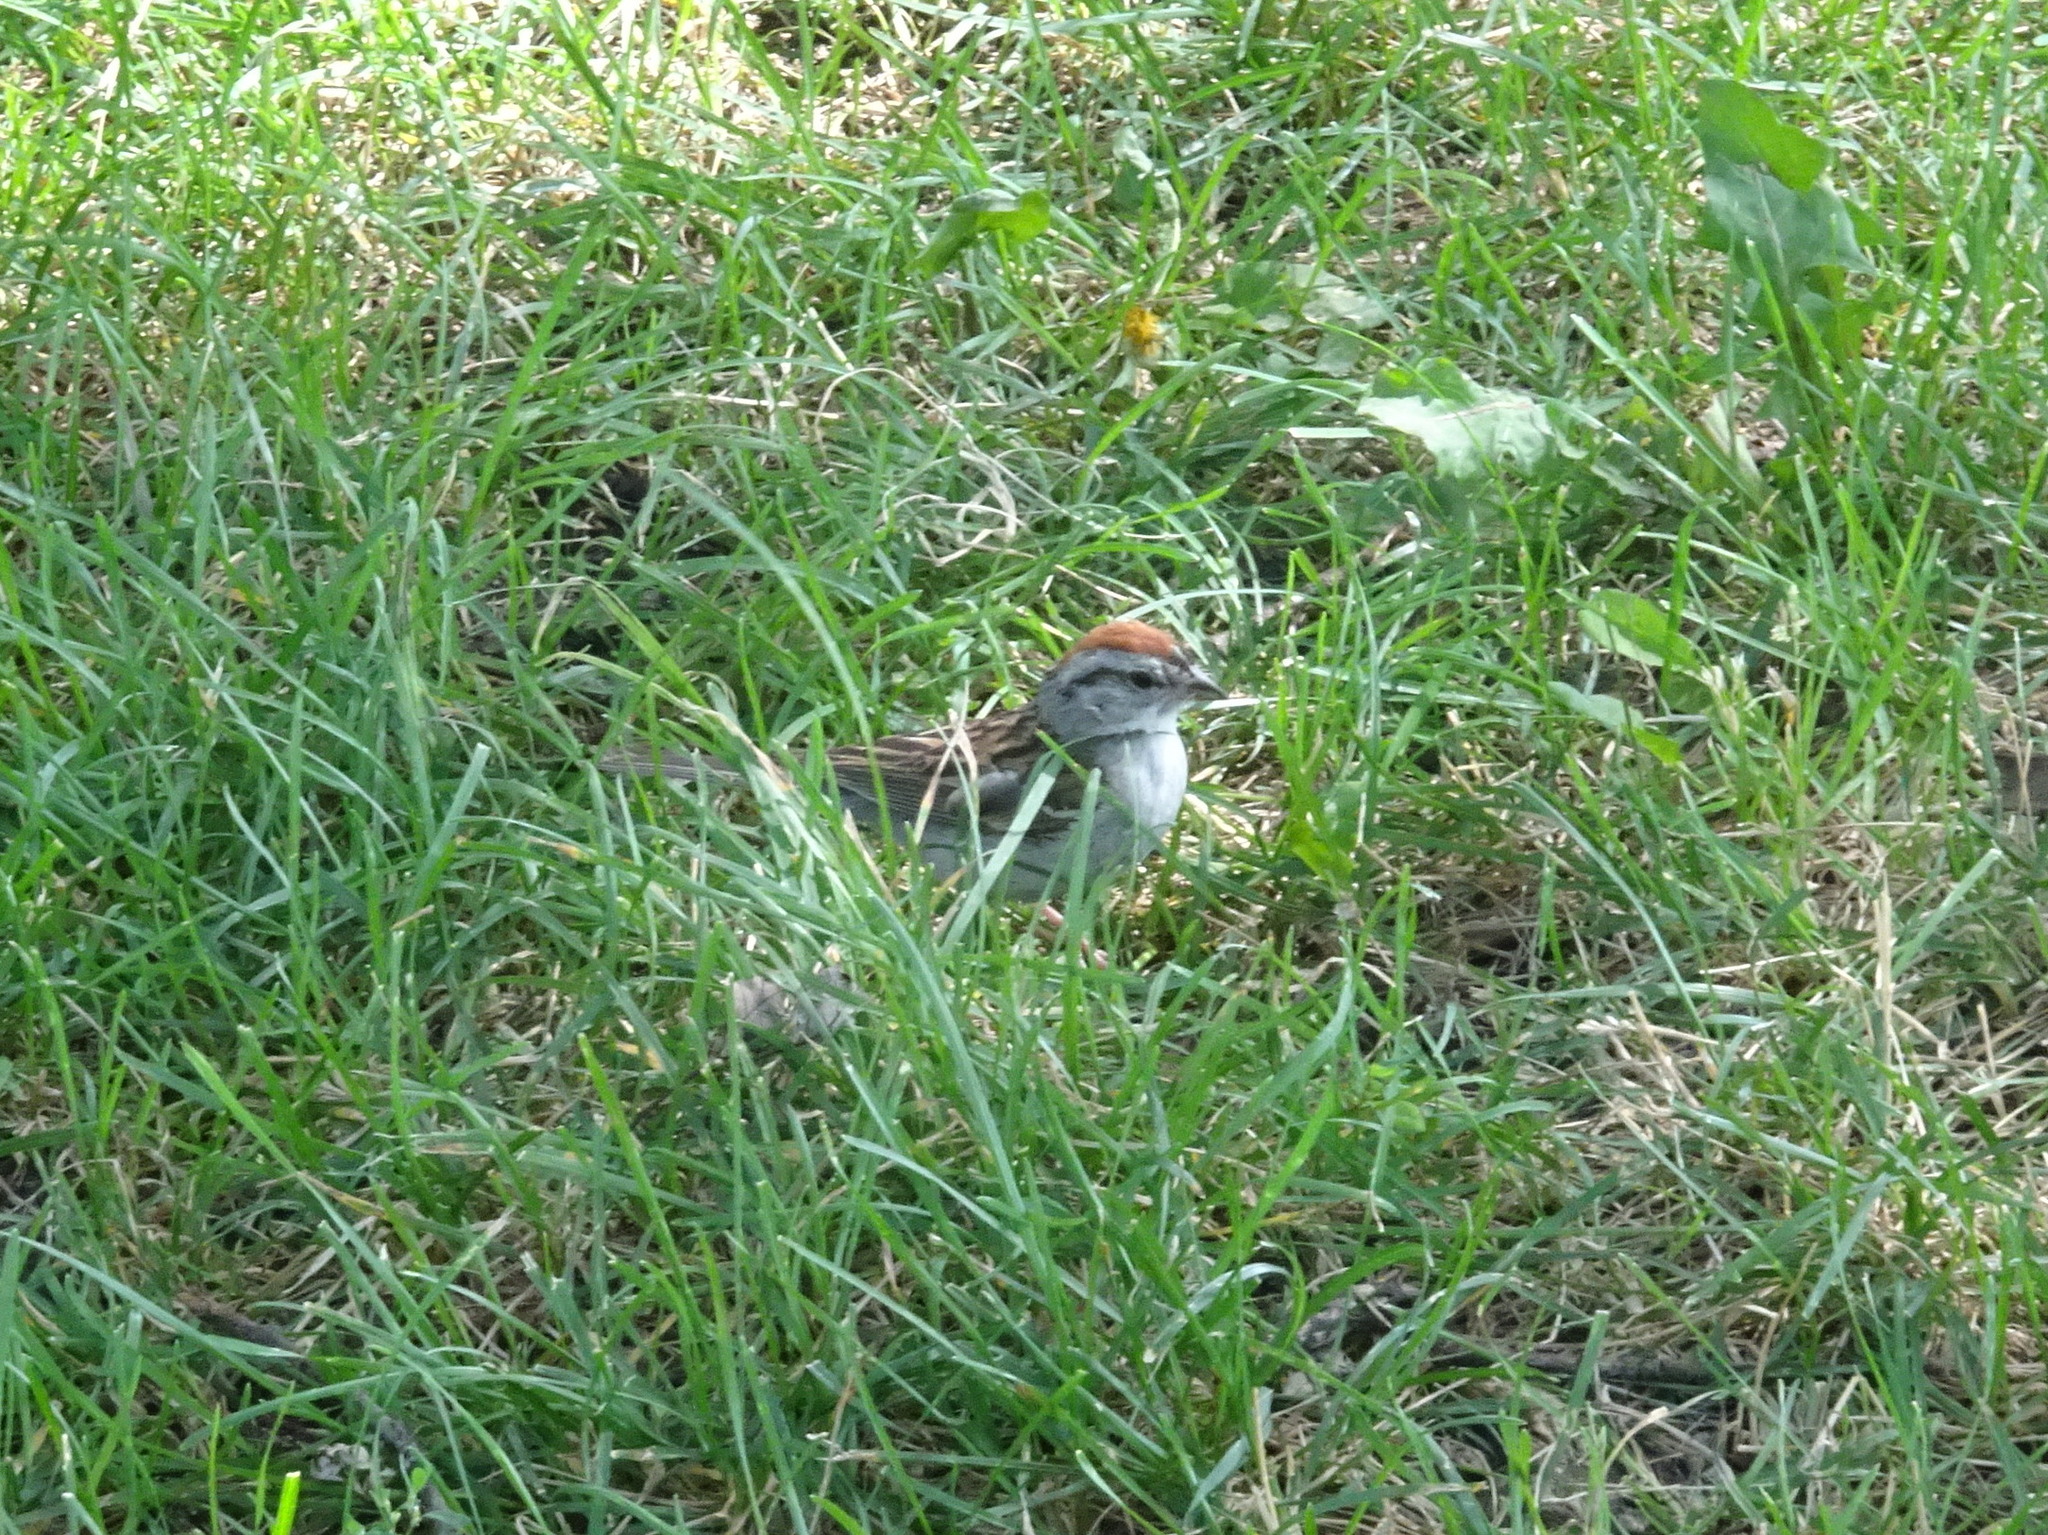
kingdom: Animalia
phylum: Chordata
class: Aves
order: Passeriformes
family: Passerellidae
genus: Spizella
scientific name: Spizella passerina
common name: Chipping sparrow
